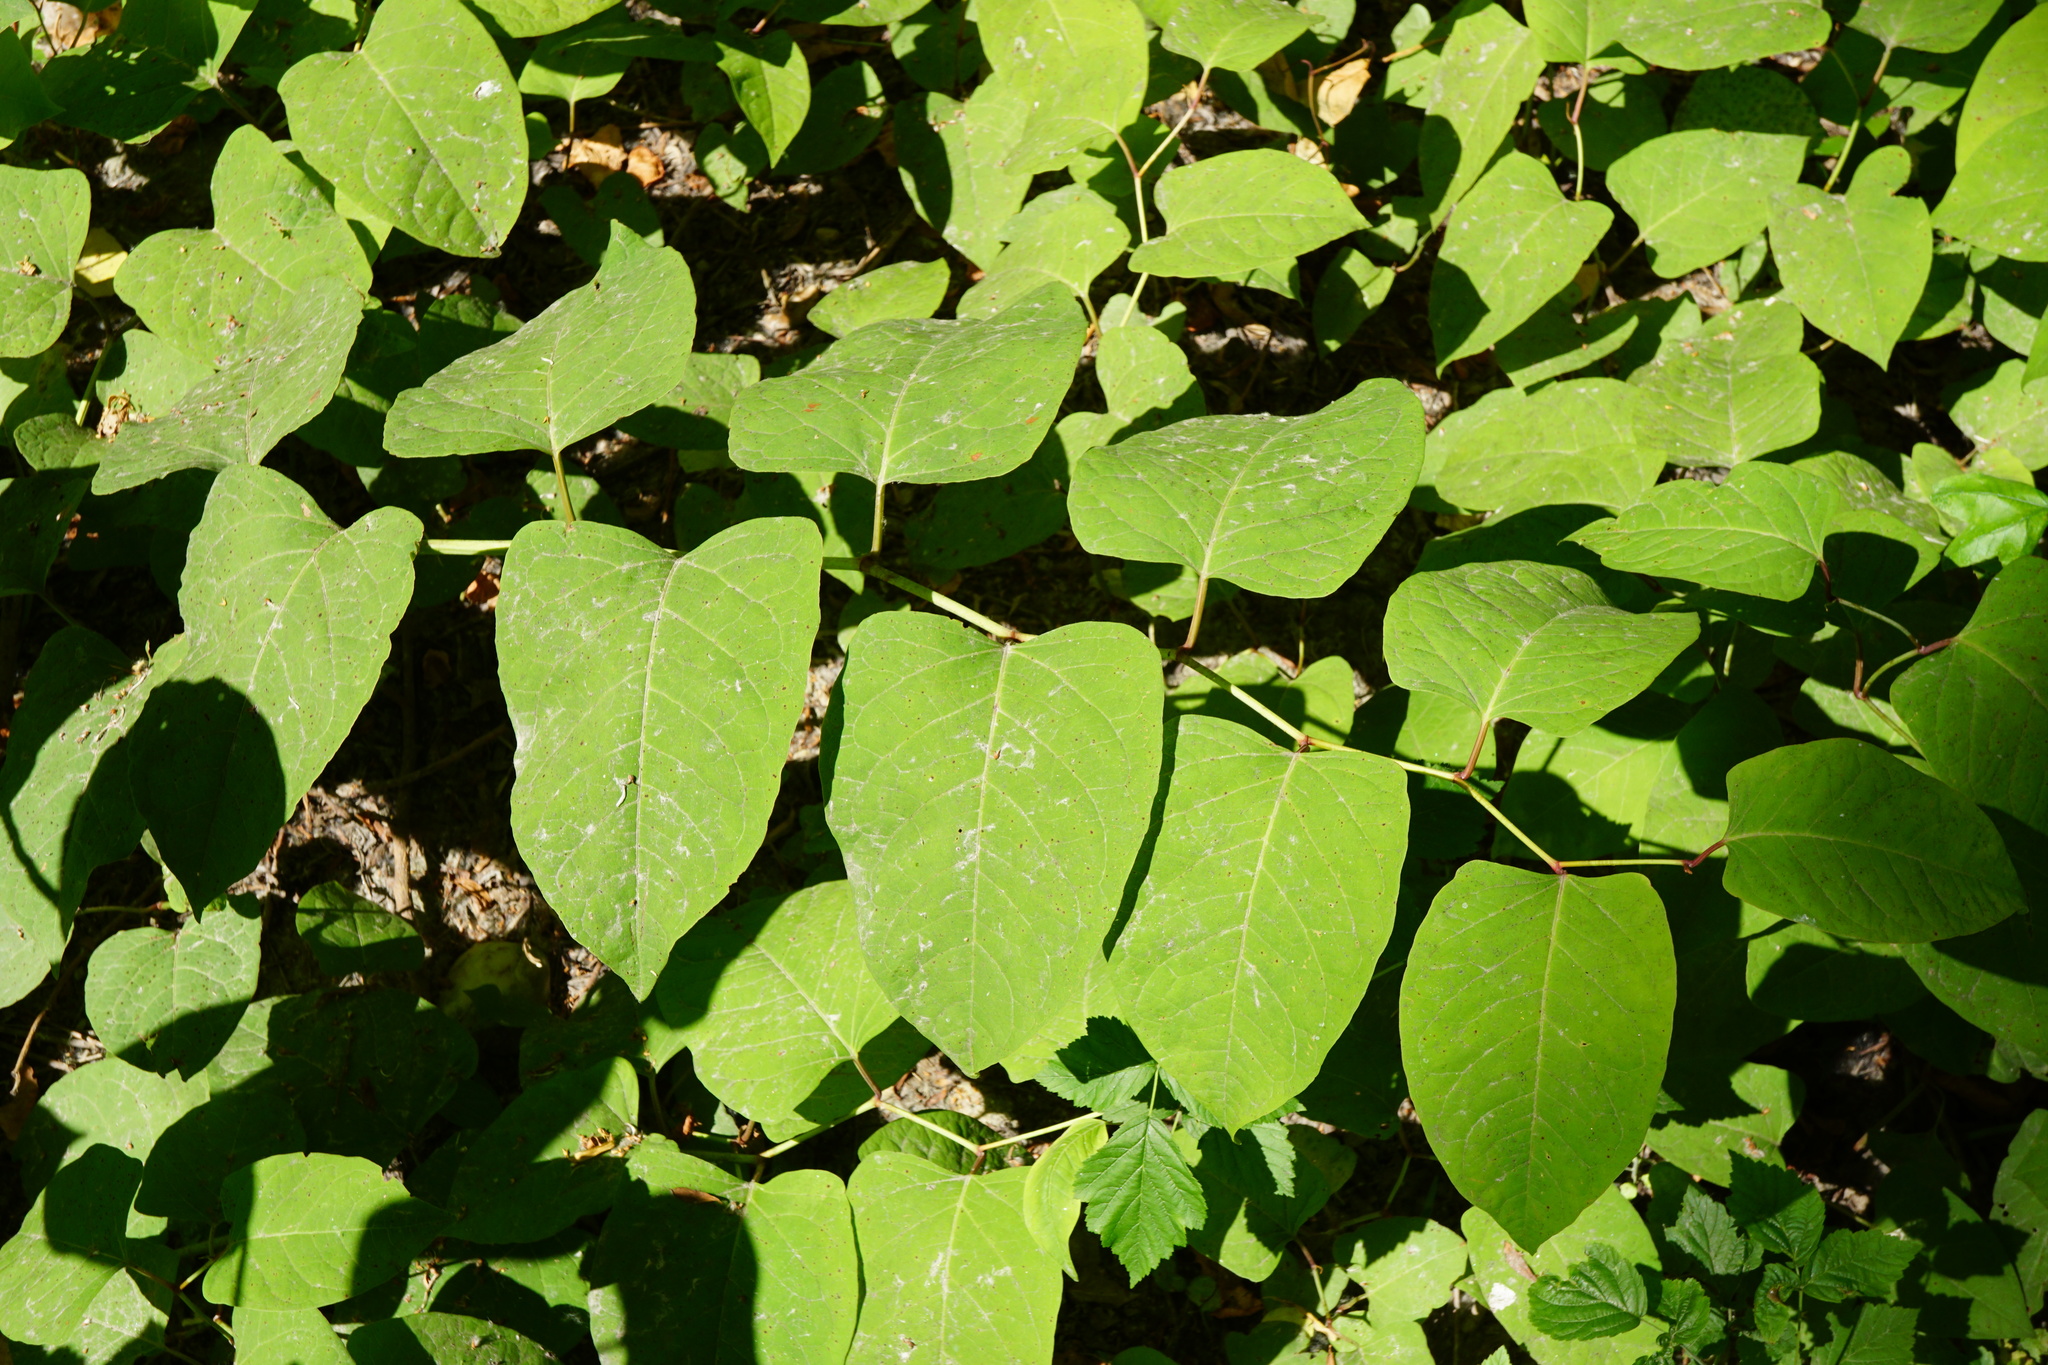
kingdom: Plantae
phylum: Tracheophyta
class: Magnoliopsida
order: Caryophyllales
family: Polygonaceae
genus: Reynoutria
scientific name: Reynoutria bohemica
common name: Bohemian knotweed
